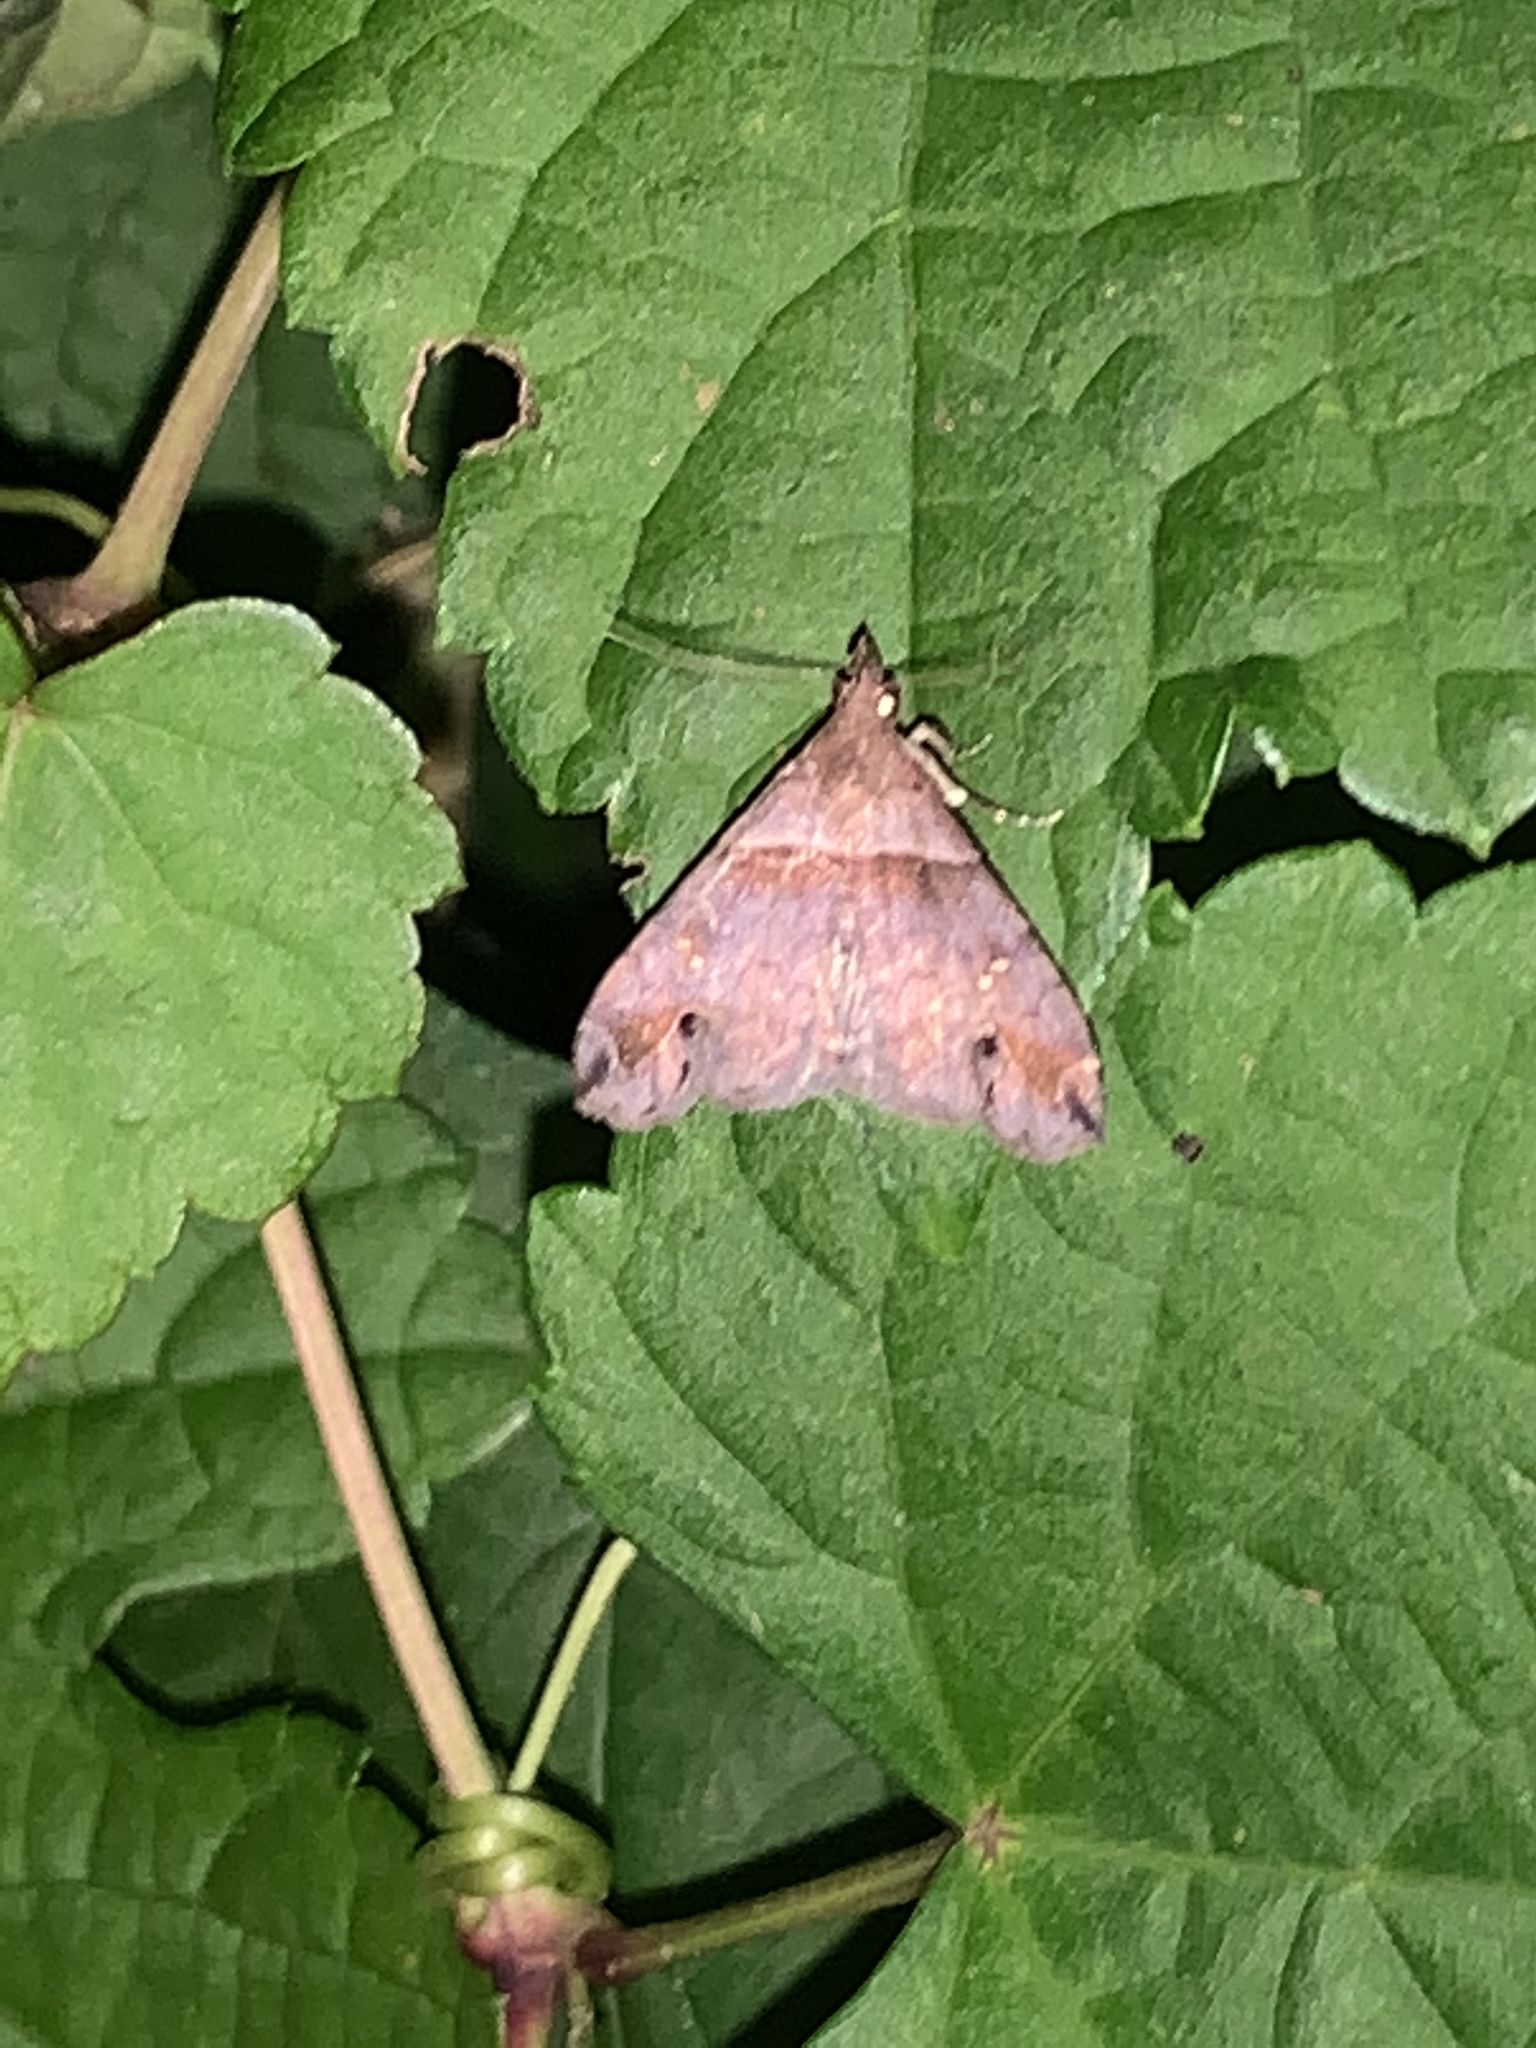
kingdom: Animalia
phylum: Arthropoda
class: Insecta
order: Lepidoptera
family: Erebidae
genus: Lascoria
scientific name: Lascoria ambigualis
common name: Ambiguous moth
